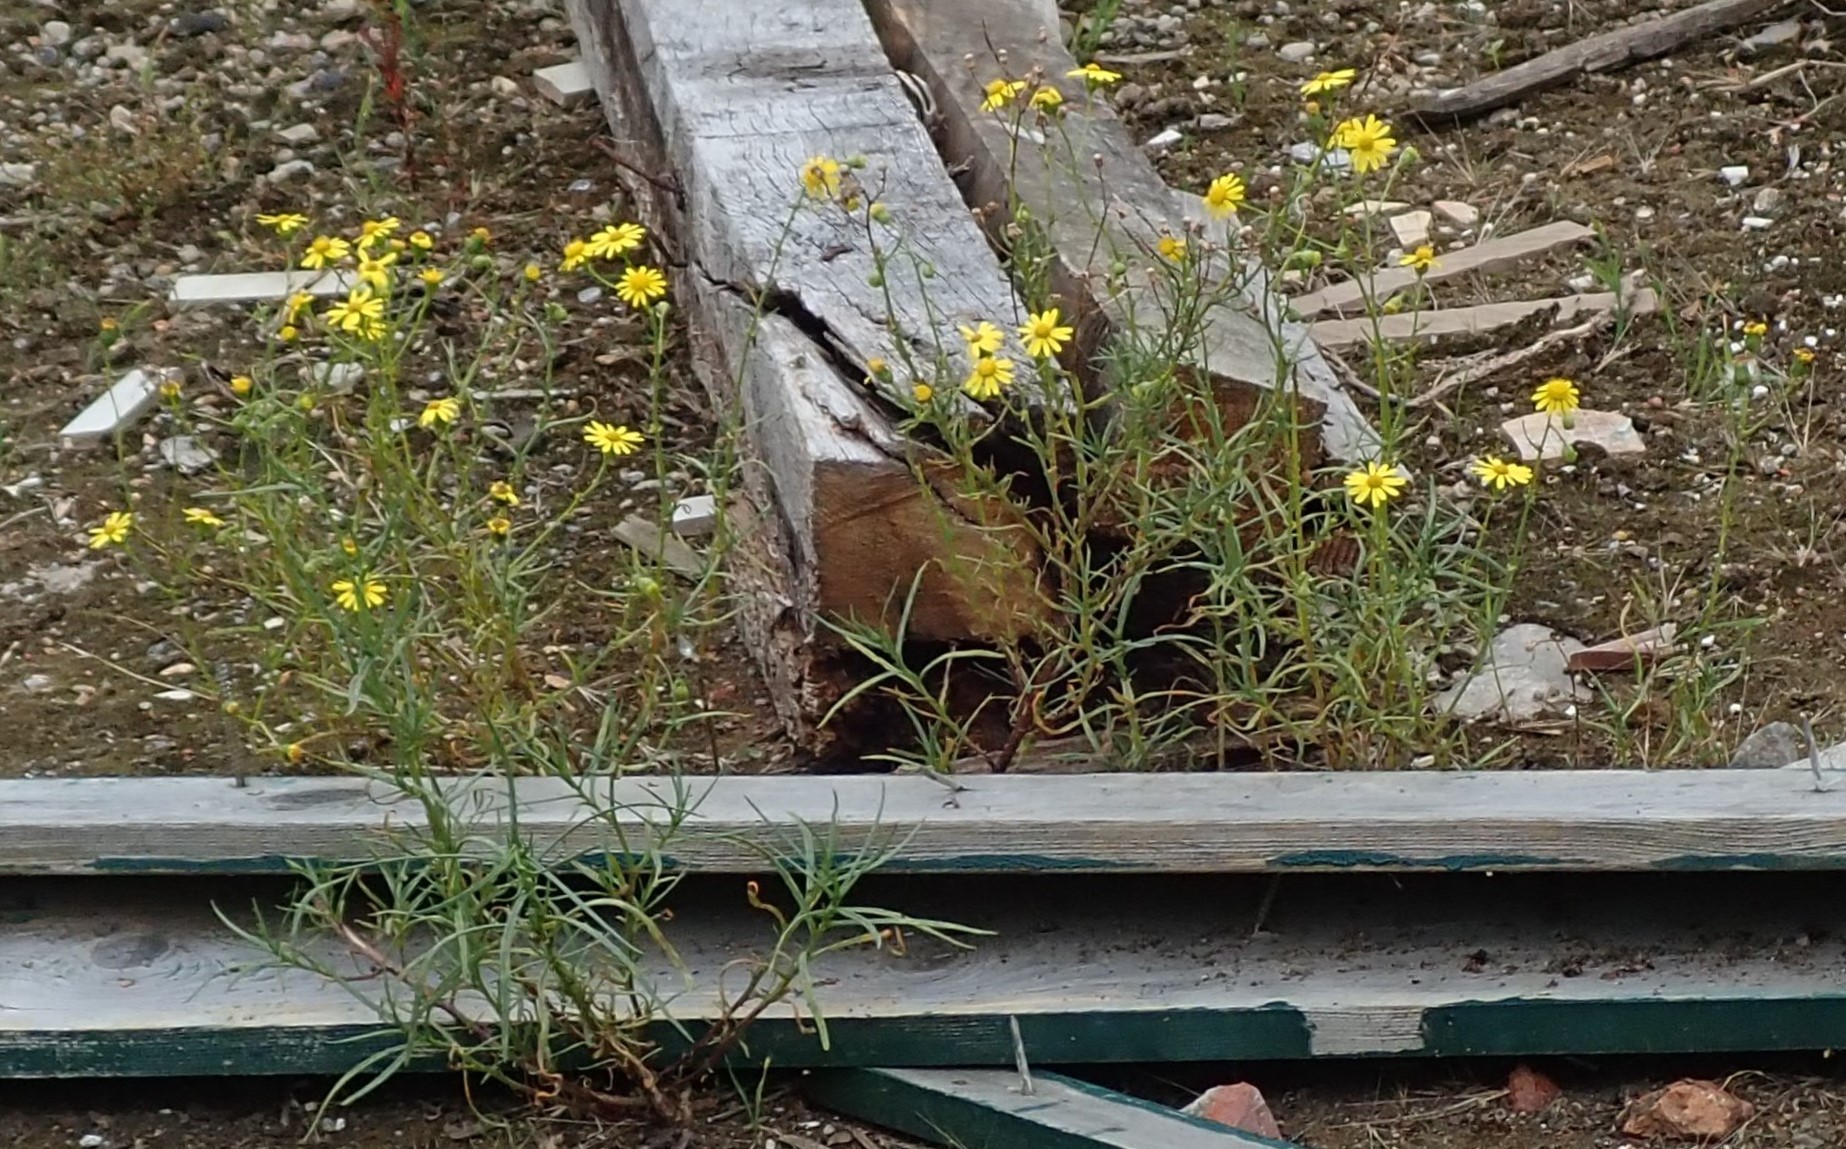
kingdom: Plantae
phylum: Tracheophyta
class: Magnoliopsida
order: Asterales
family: Asteraceae
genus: Senecio
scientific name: Senecio inaequidens
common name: Narrow-leaved ragwort
